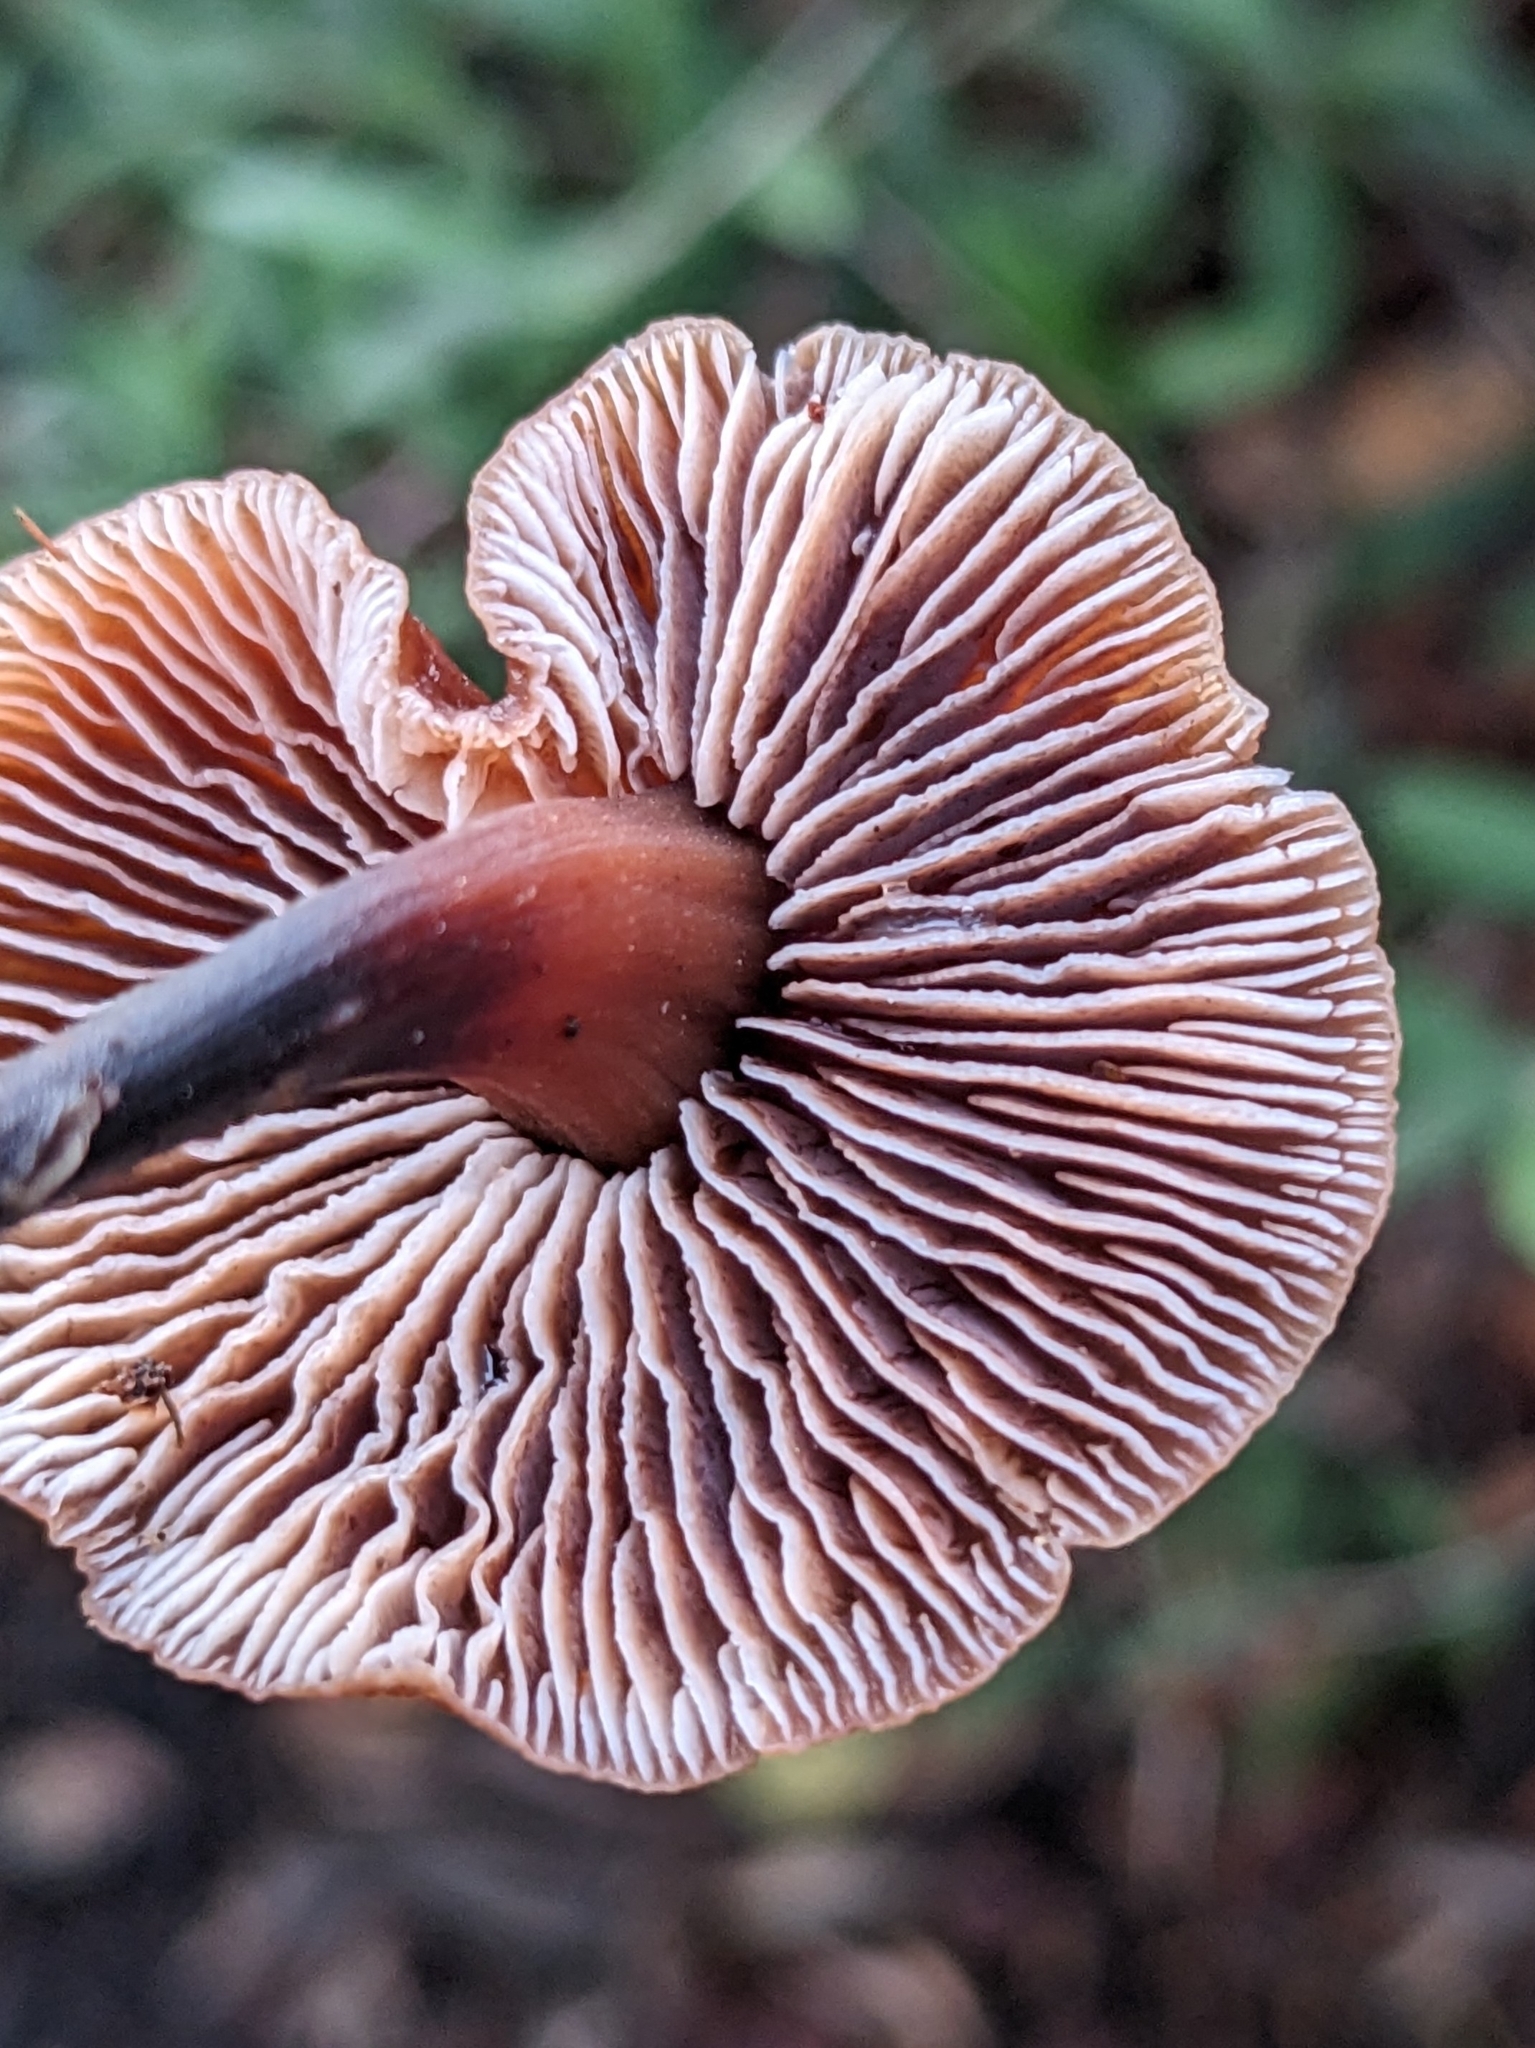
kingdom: Fungi
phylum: Basidiomycota
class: Agaricomycetes
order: Agaricales
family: Omphalotaceae
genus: Gymnopus
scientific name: Gymnopus brassicolens
